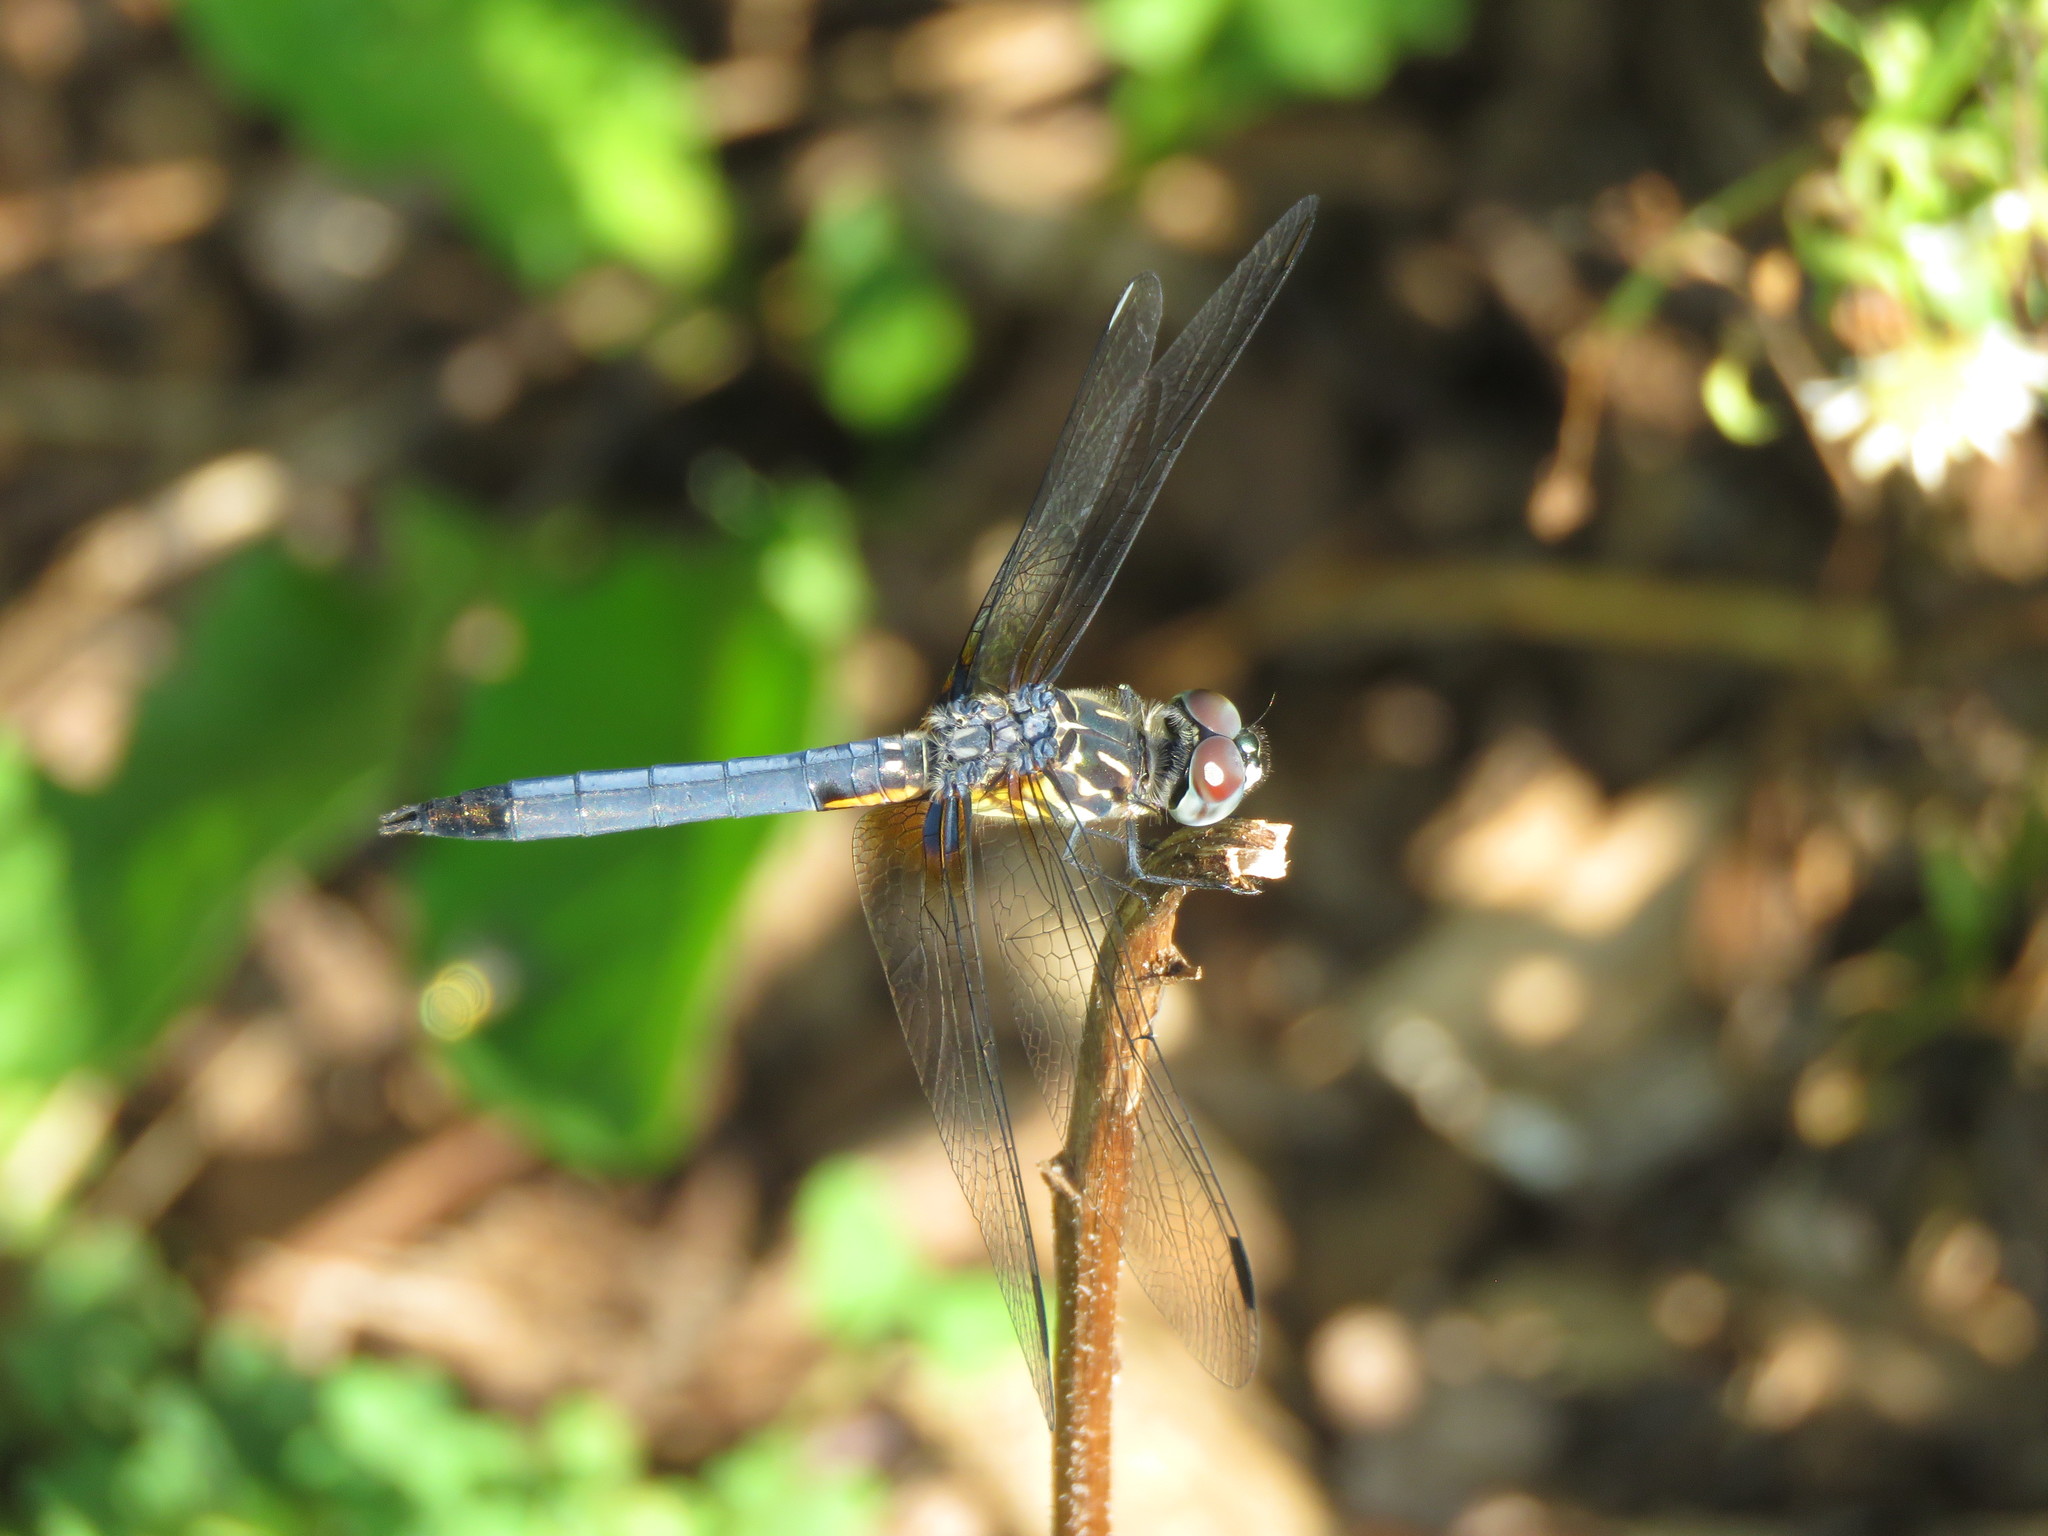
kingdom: Animalia
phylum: Arthropoda
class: Insecta
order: Odonata
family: Libellulidae
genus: Pachydiplax
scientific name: Pachydiplax longipennis
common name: Blue dasher
